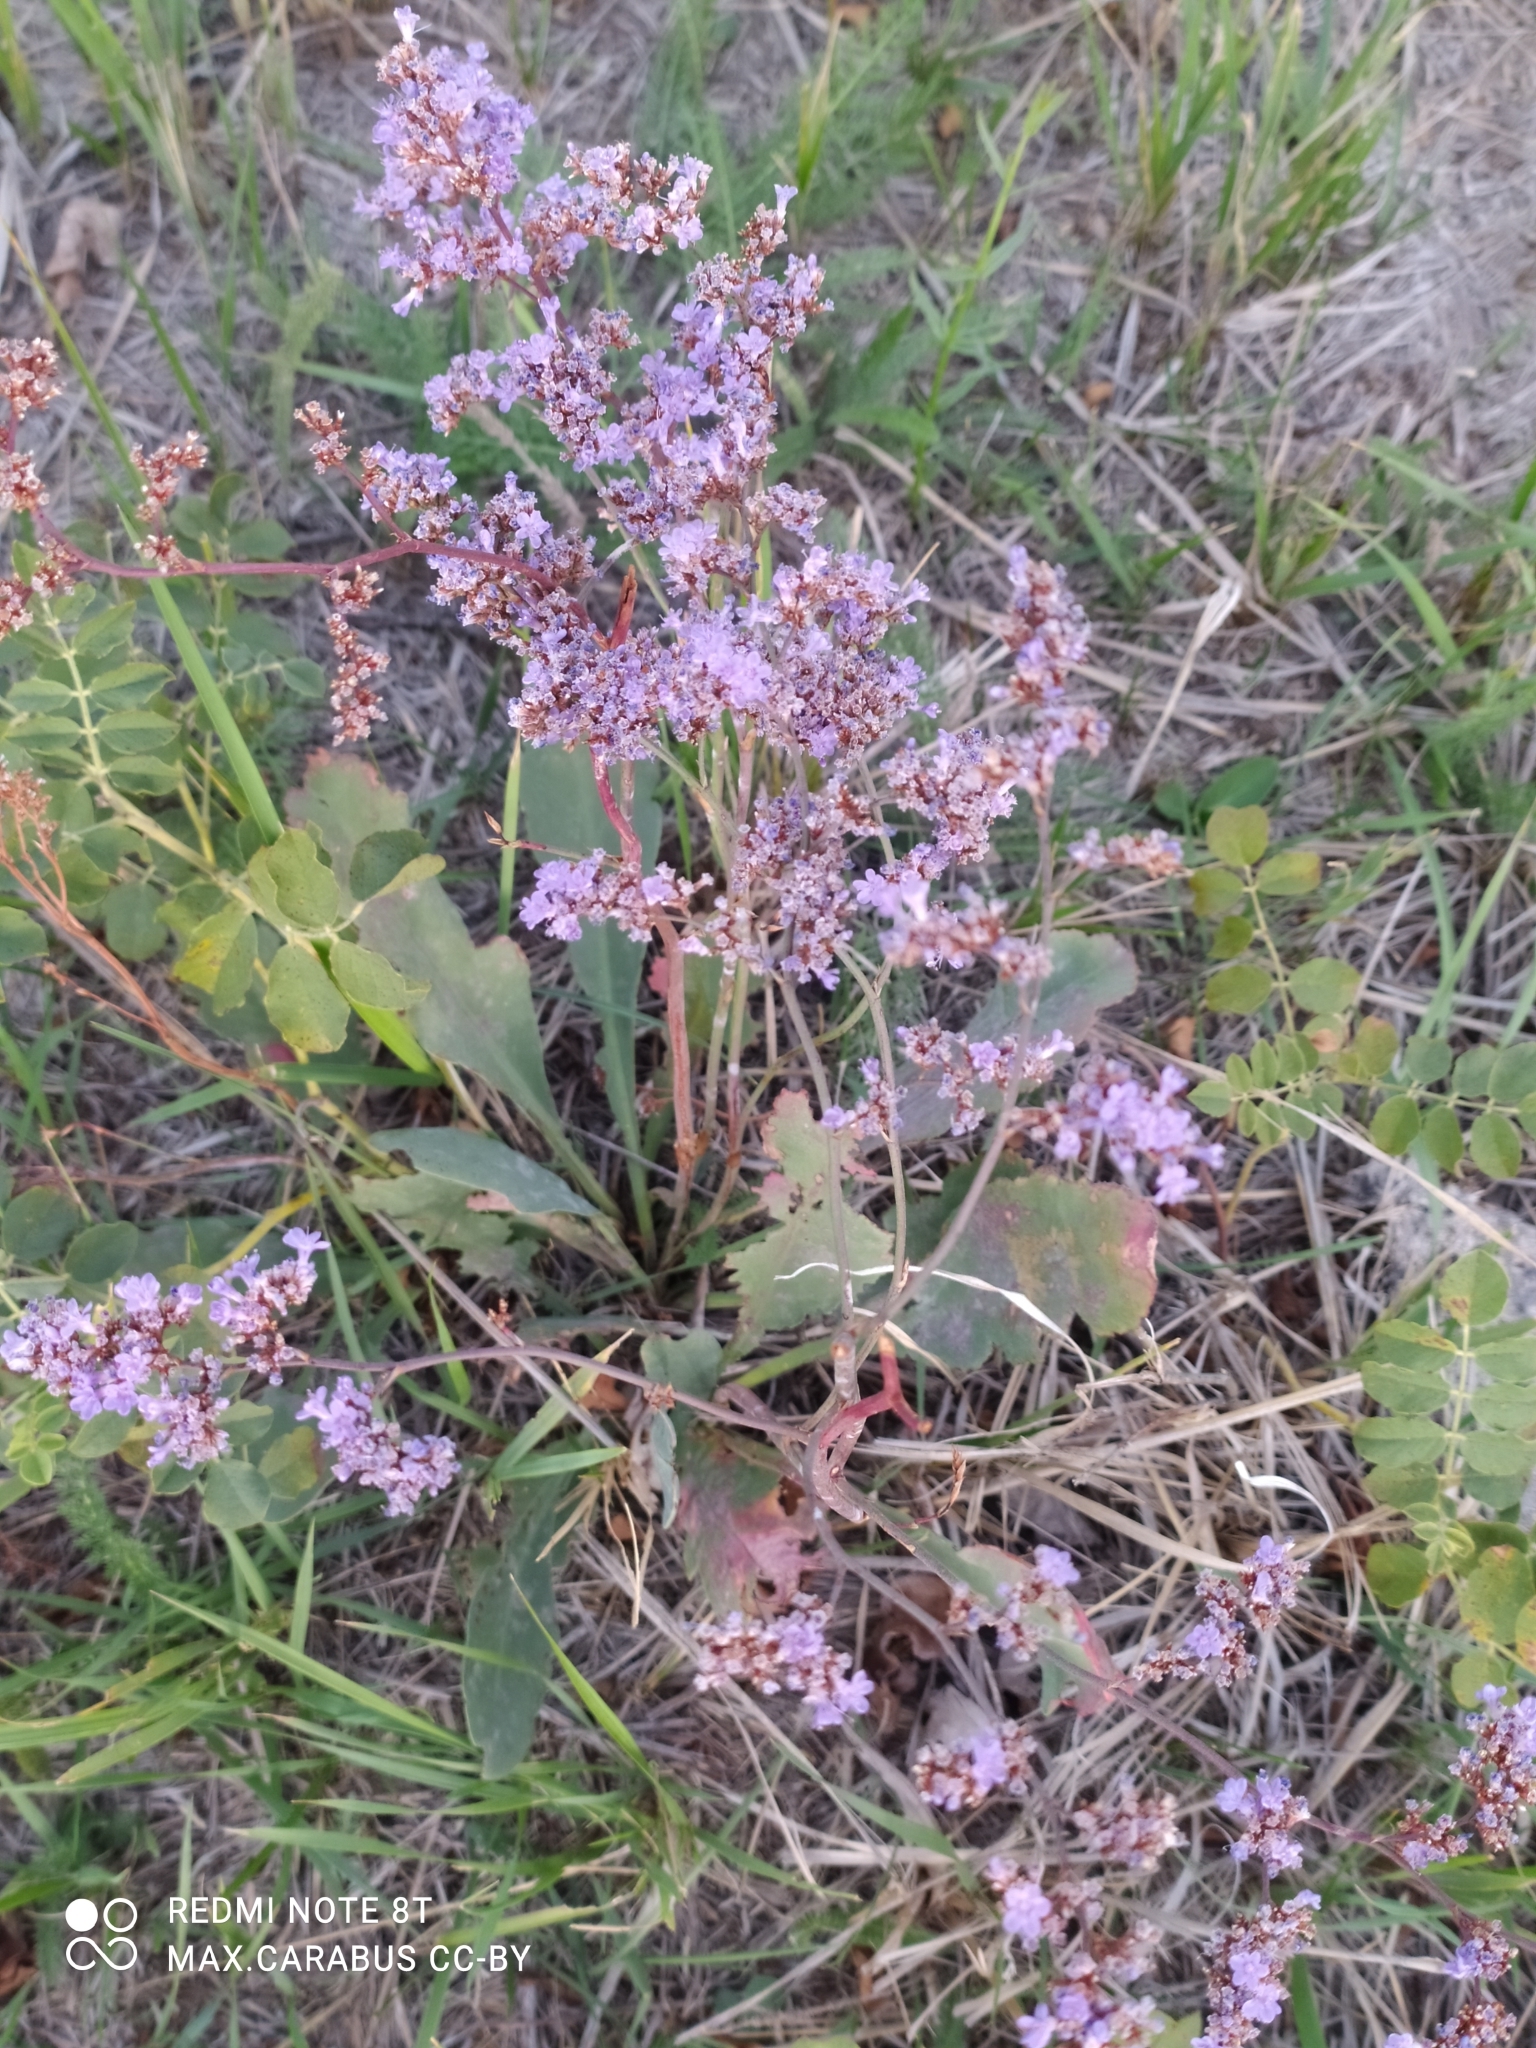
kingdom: Plantae
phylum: Tracheophyta
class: Magnoliopsida
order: Caryophyllales
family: Plumbaginaceae
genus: Limonium
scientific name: Limonium gmelini
